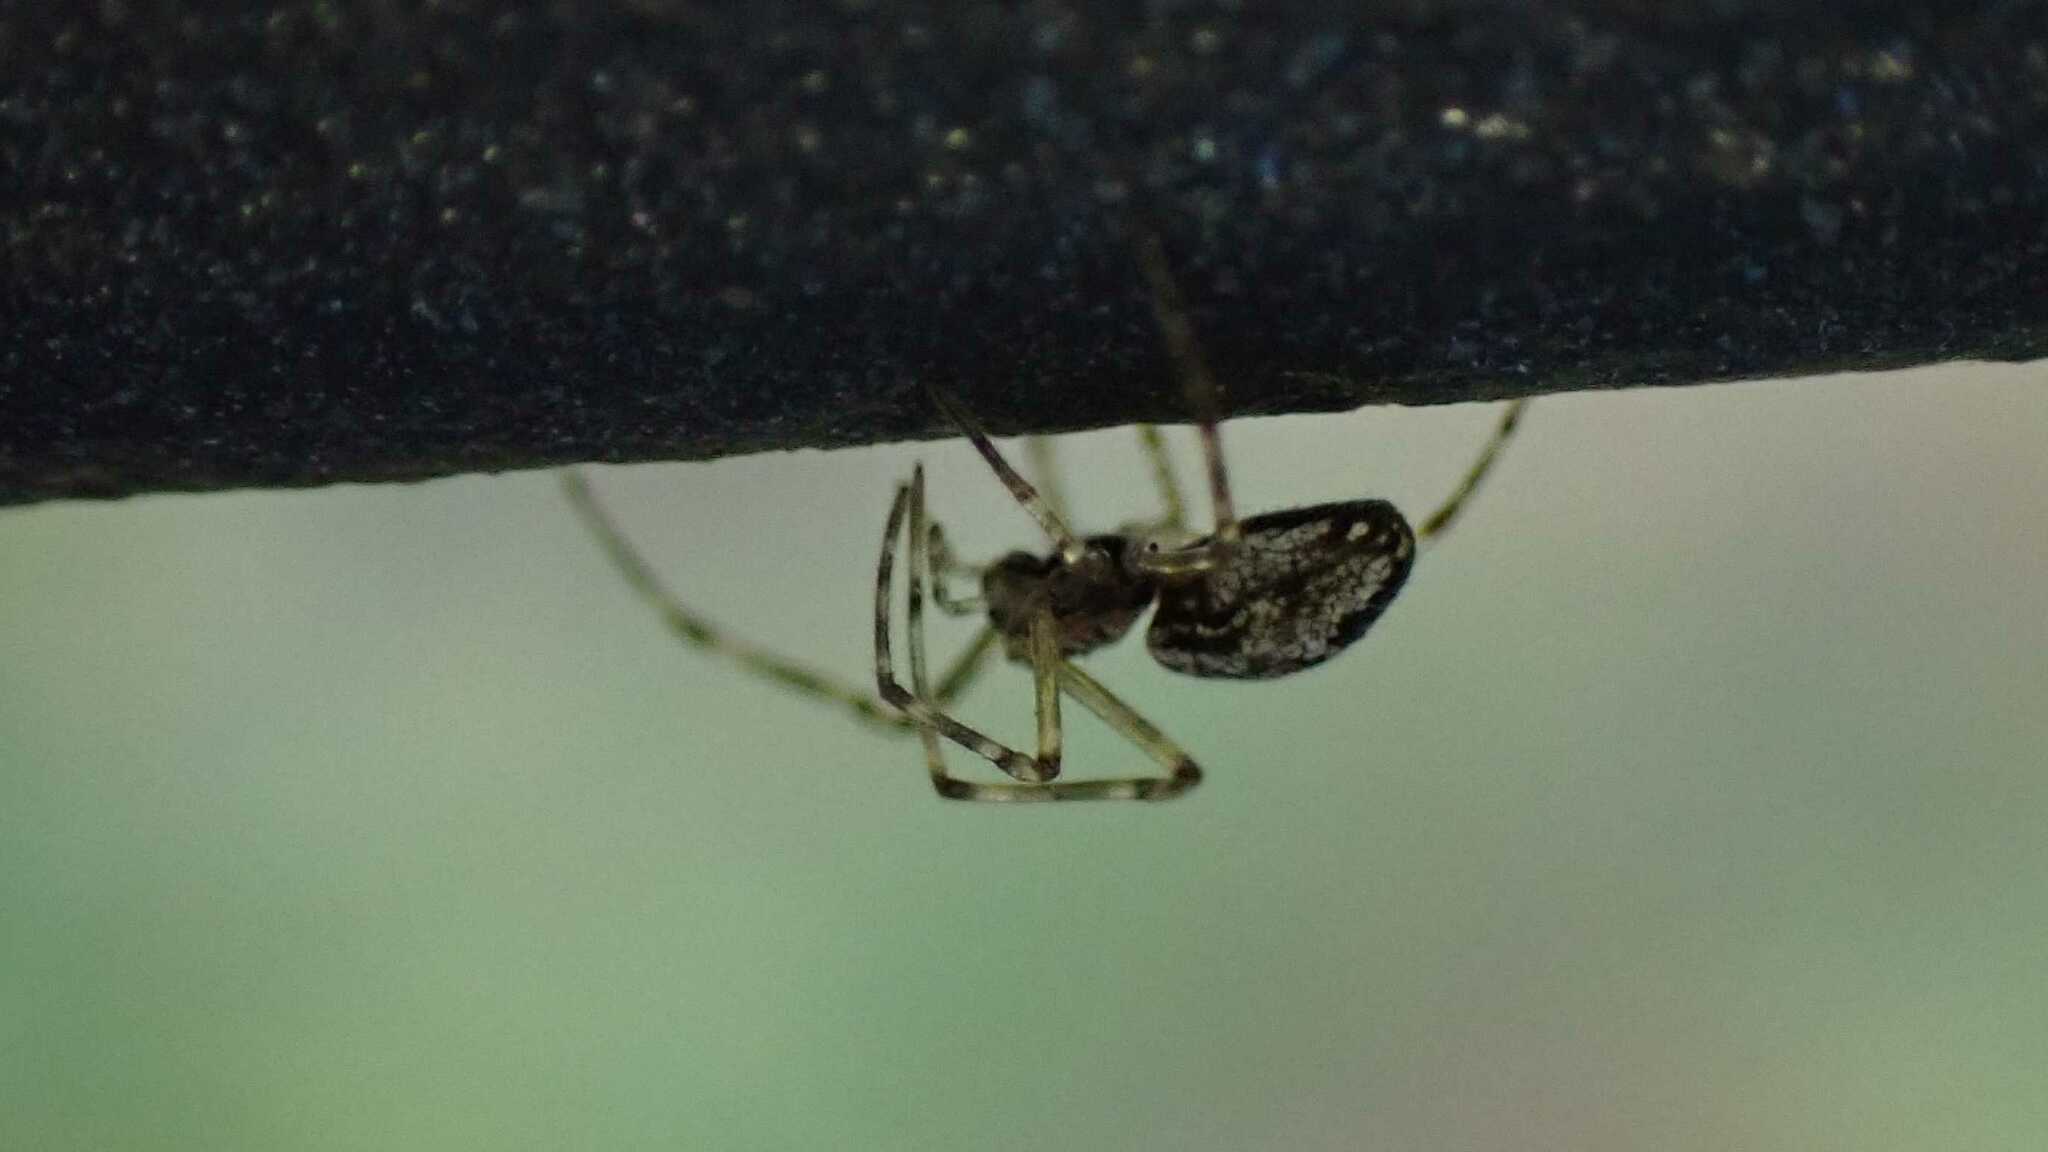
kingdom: Animalia
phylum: Arthropoda
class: Arachnida
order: Araneae
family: Tetragnathidae
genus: Tetragnatha
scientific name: Tetragnatha obtusa
